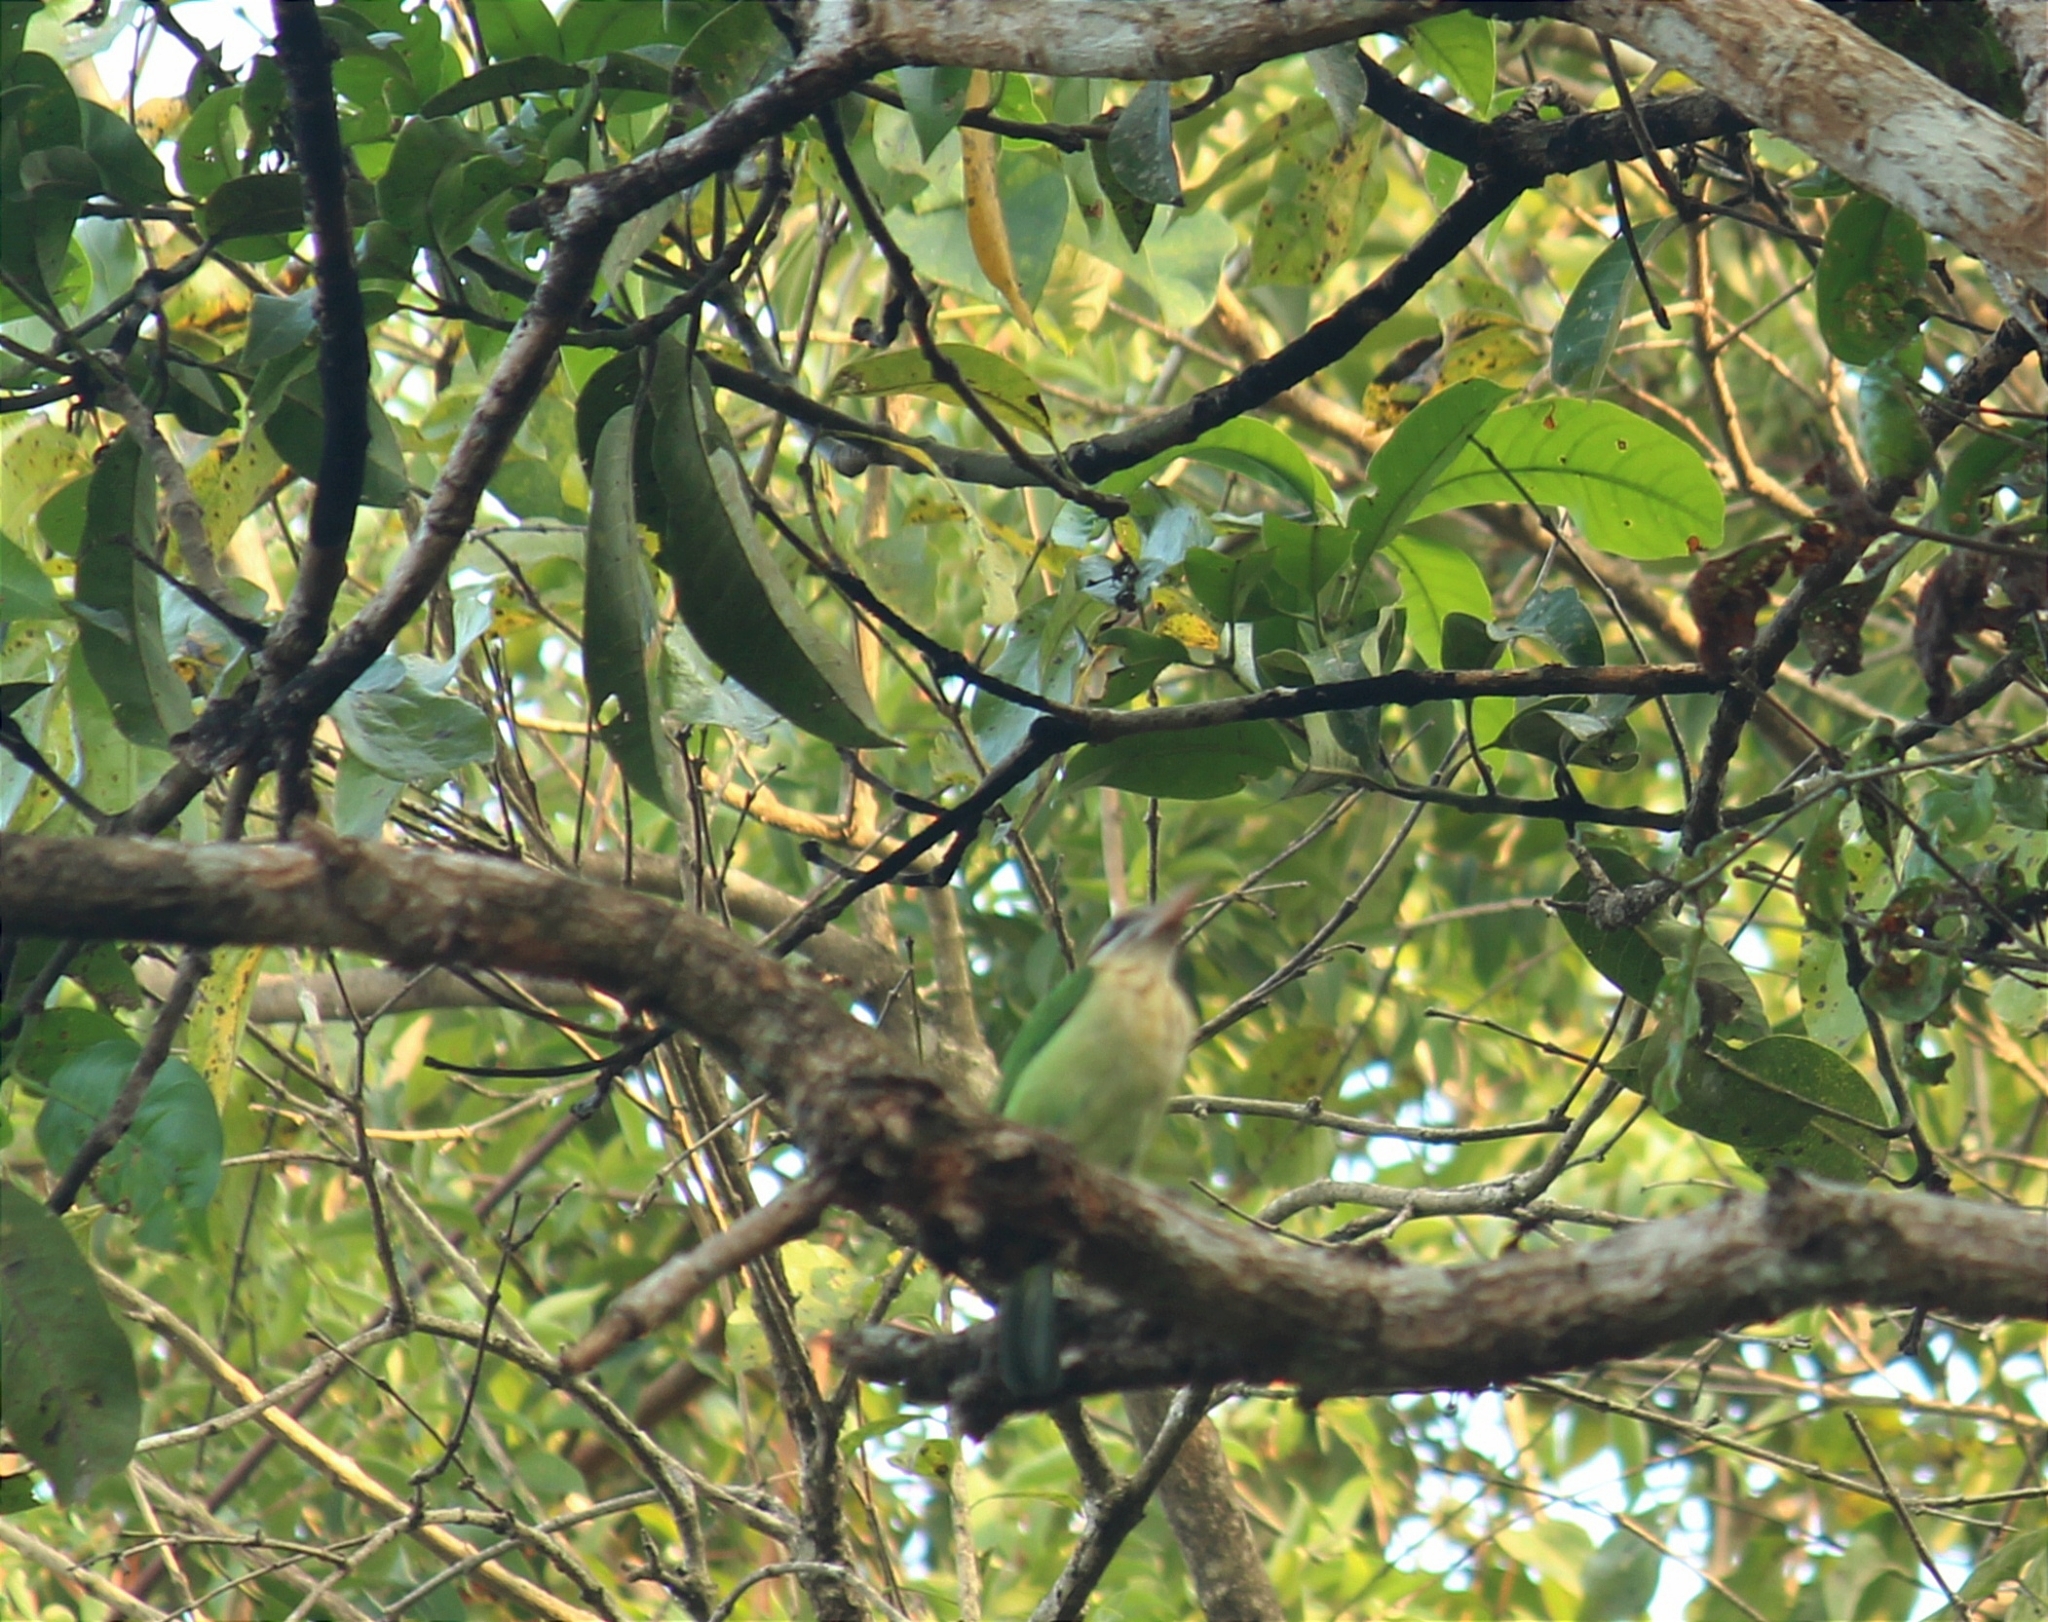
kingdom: Animalia
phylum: Chordata
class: Aves
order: Piciformes
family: Megalaimidae
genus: Psilopogon
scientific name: Psilopogon viridis
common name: White-cheeked barbet
